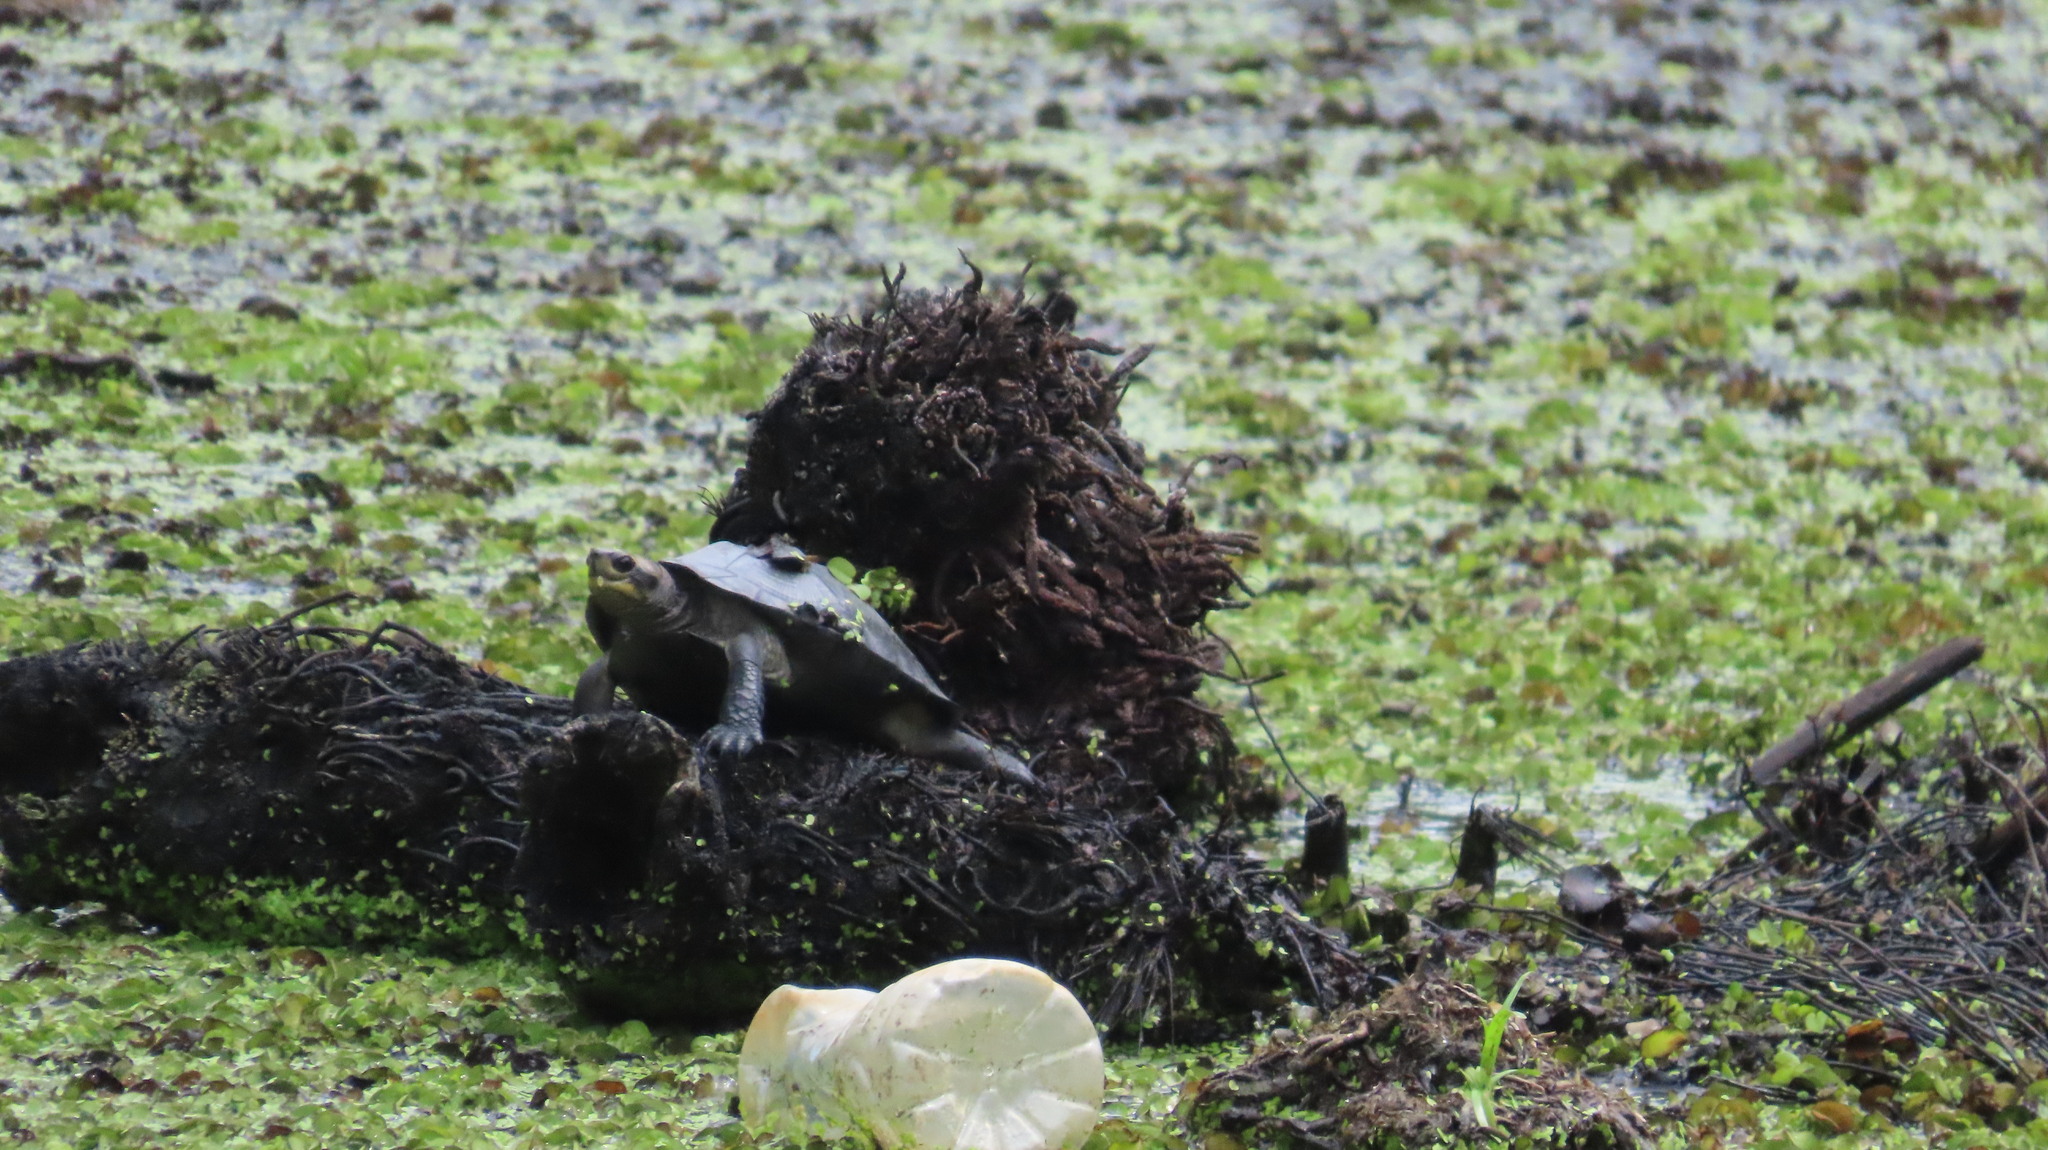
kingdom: Animalia
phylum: Chordata
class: Testudines
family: Geoemydidae
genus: Melanochelys
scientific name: Melanochelys trijuga
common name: Indian black turtle
